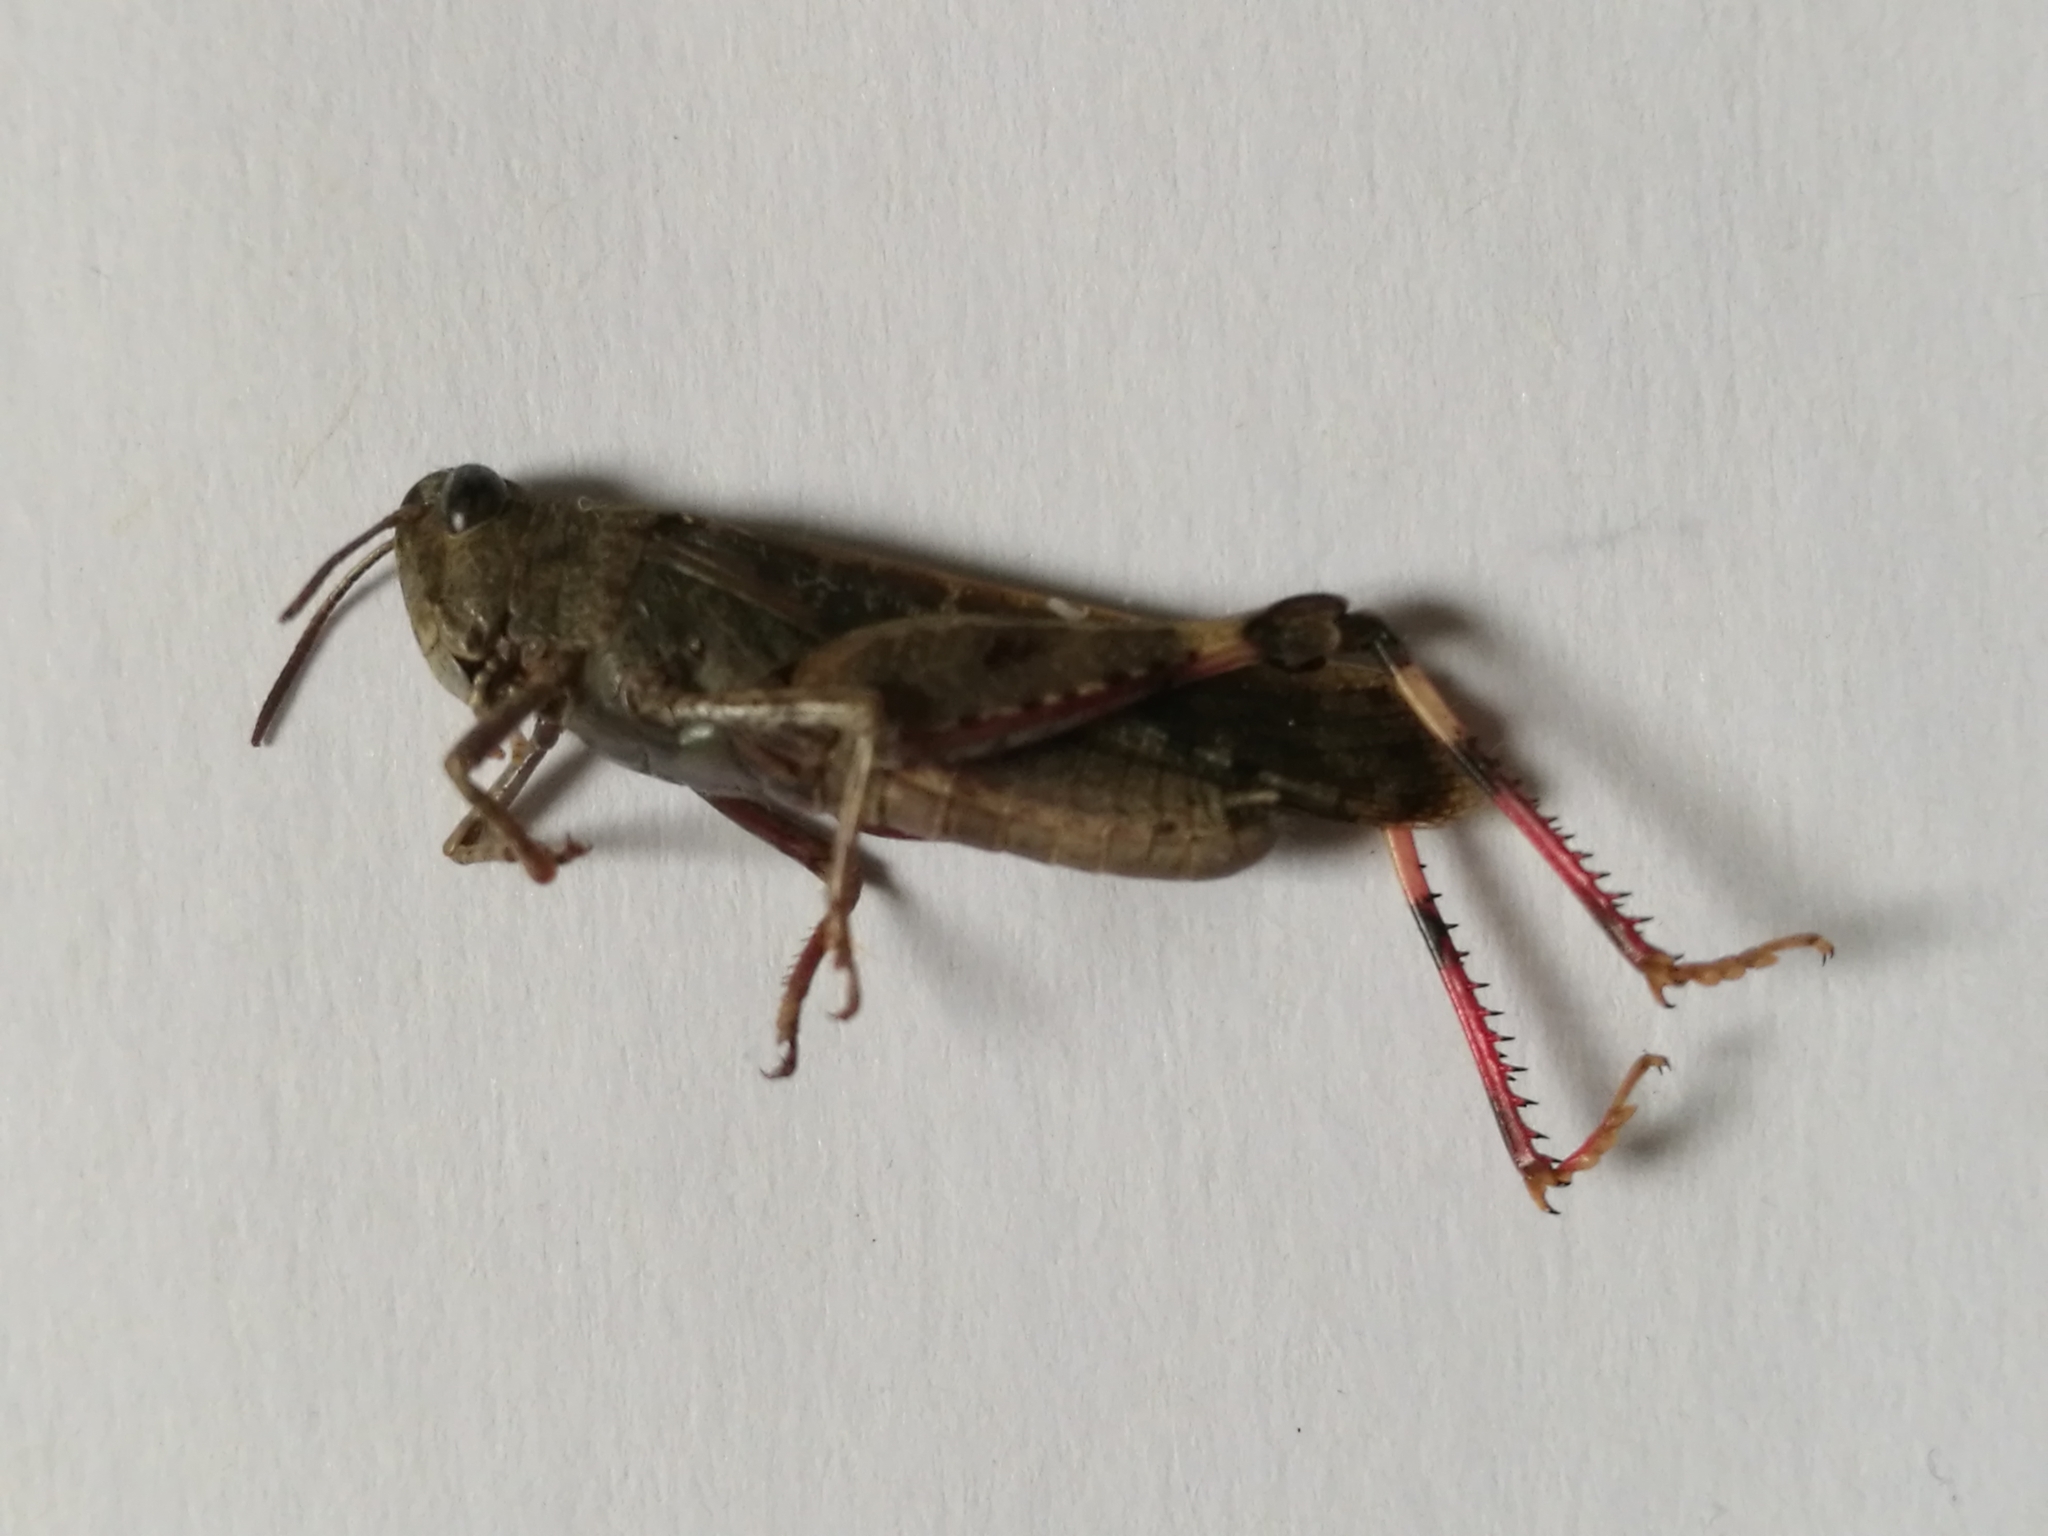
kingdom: Animalia
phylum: Arthropoda
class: Insecta
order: Orthoptera
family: Acrididae
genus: Aiolopus
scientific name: Aiolopus strepens
